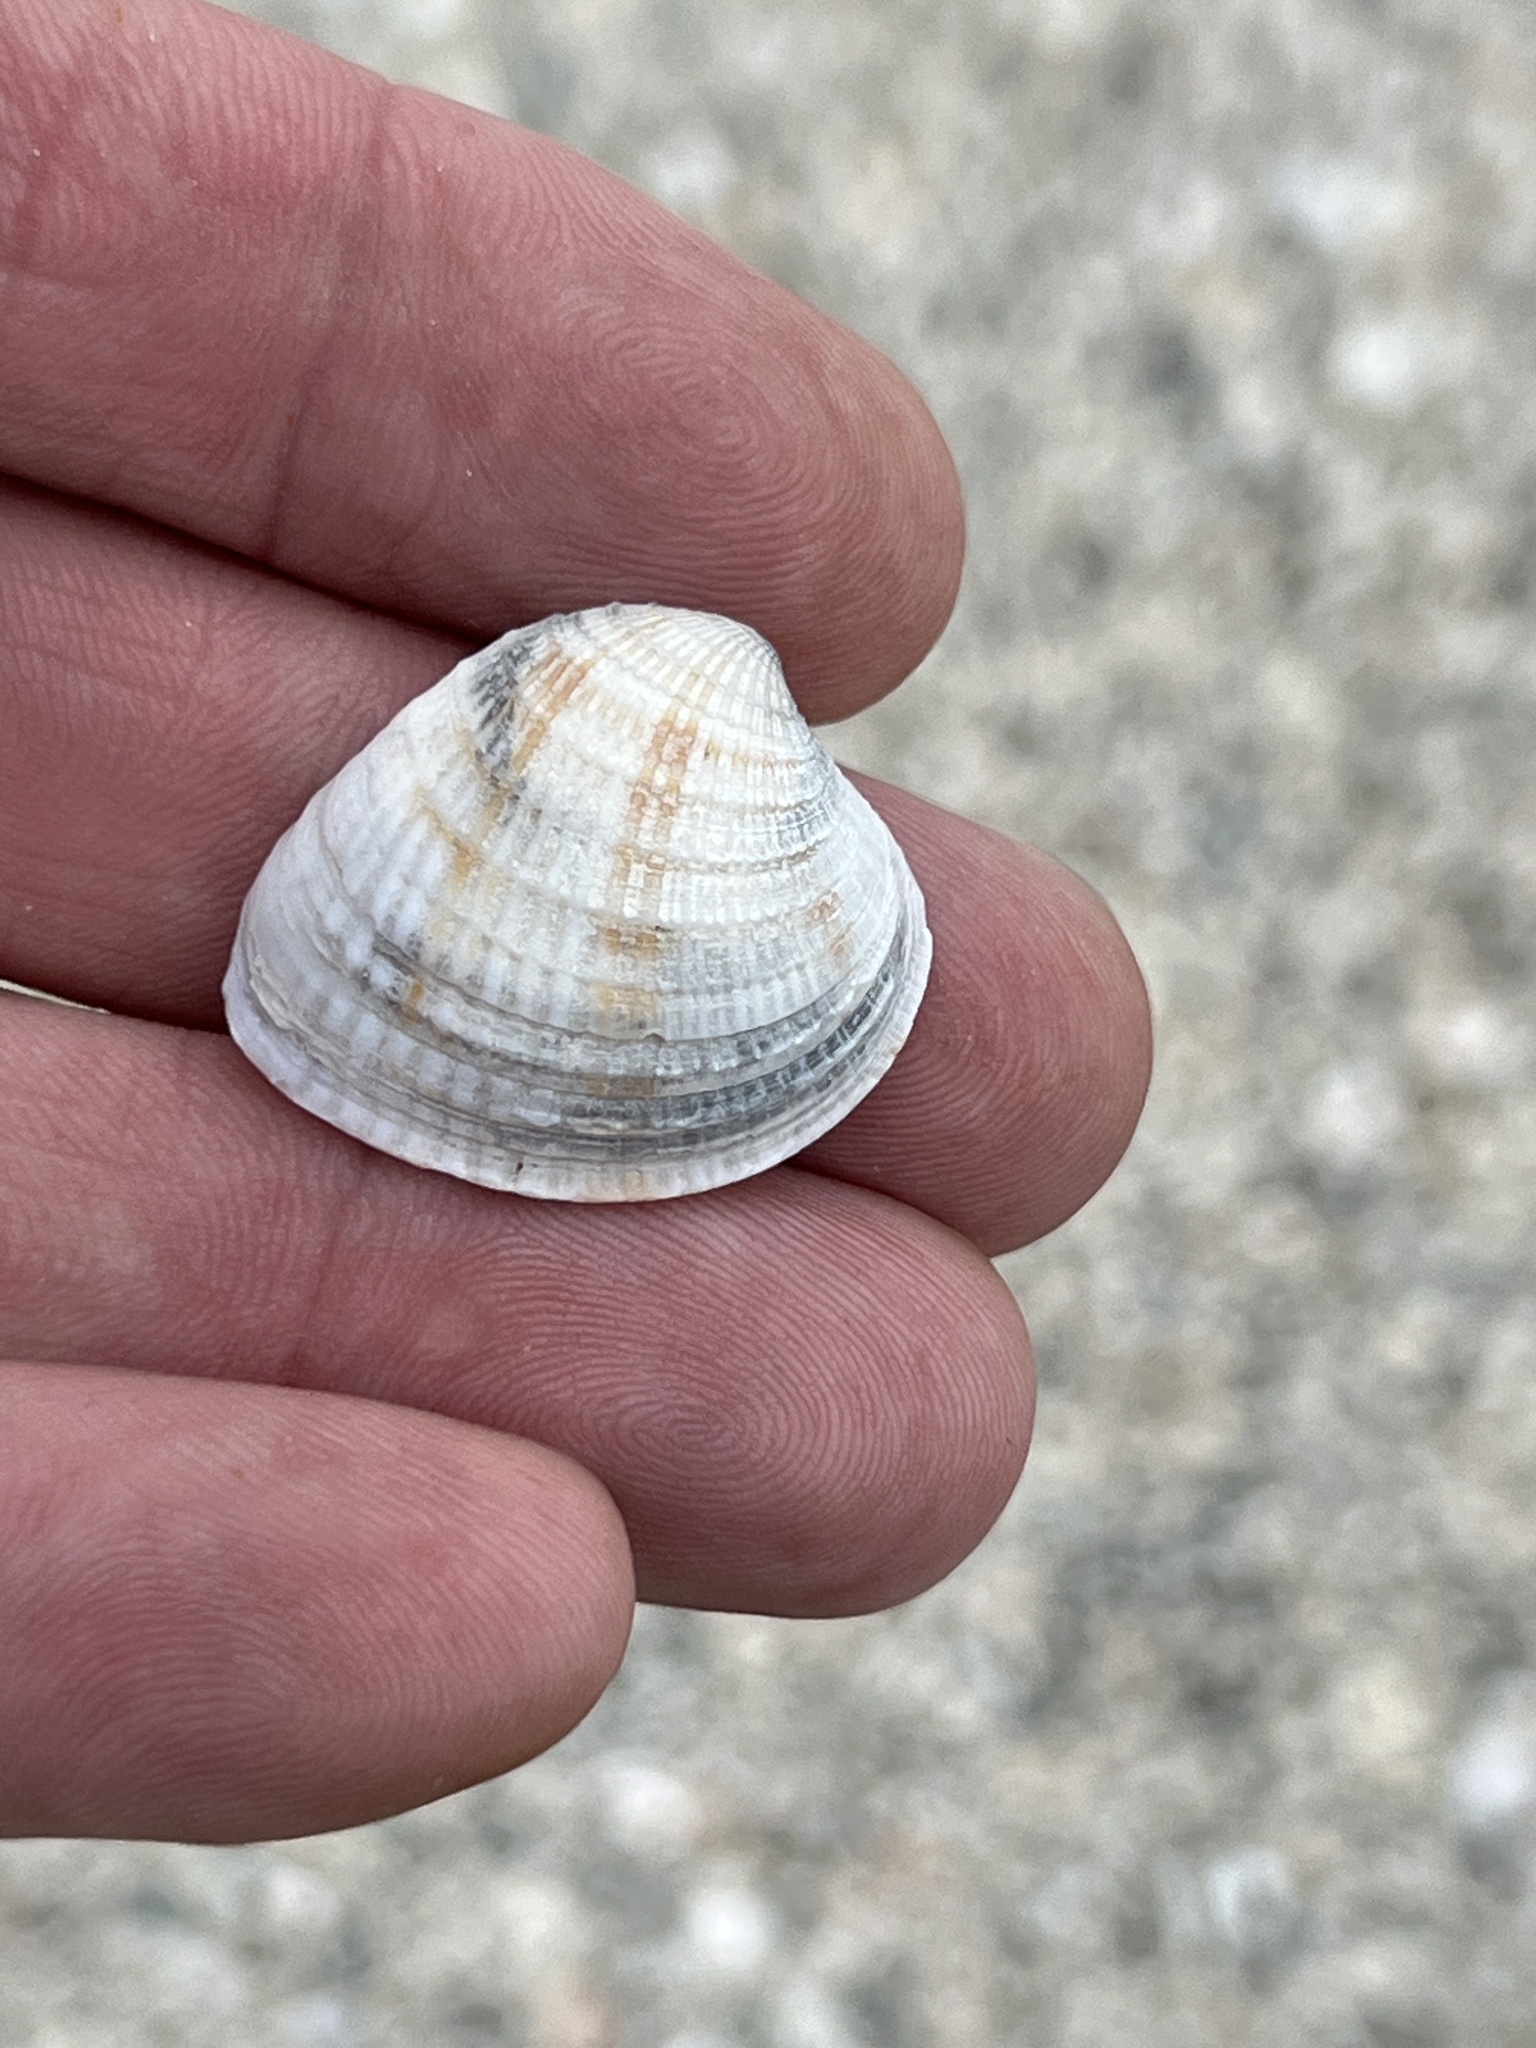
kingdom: Animalia
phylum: Mollusca
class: Bivalvia
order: Venerida
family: Veneridae
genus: Chione
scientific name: Chione elevata
